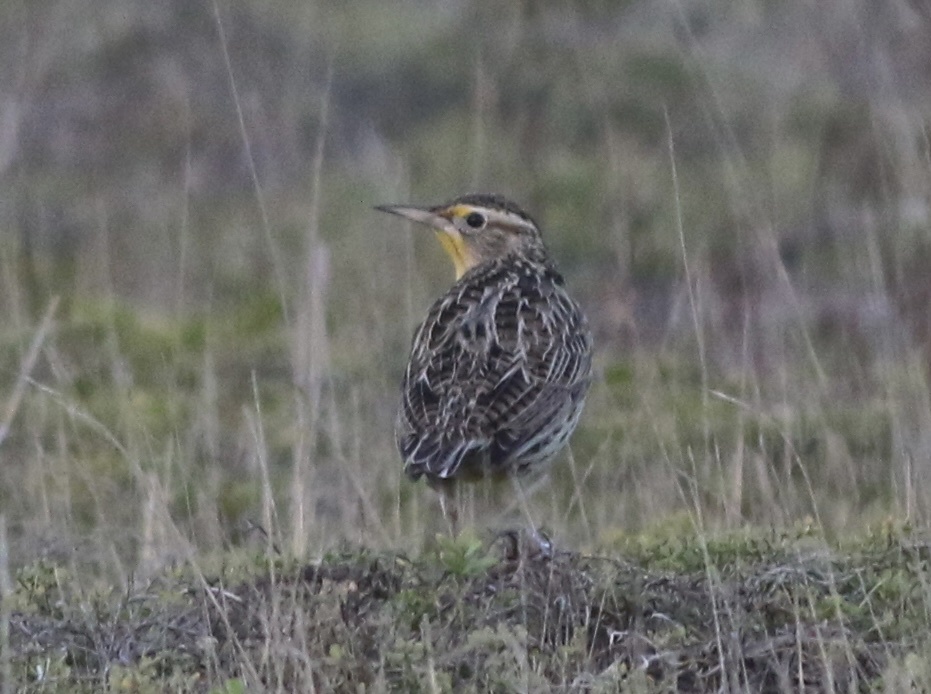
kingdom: Animalia
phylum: Chordata
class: Aves
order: Passeriformes
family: Icteridae
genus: Sturnella
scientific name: Sturnella neglecta
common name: Western meadowlark
